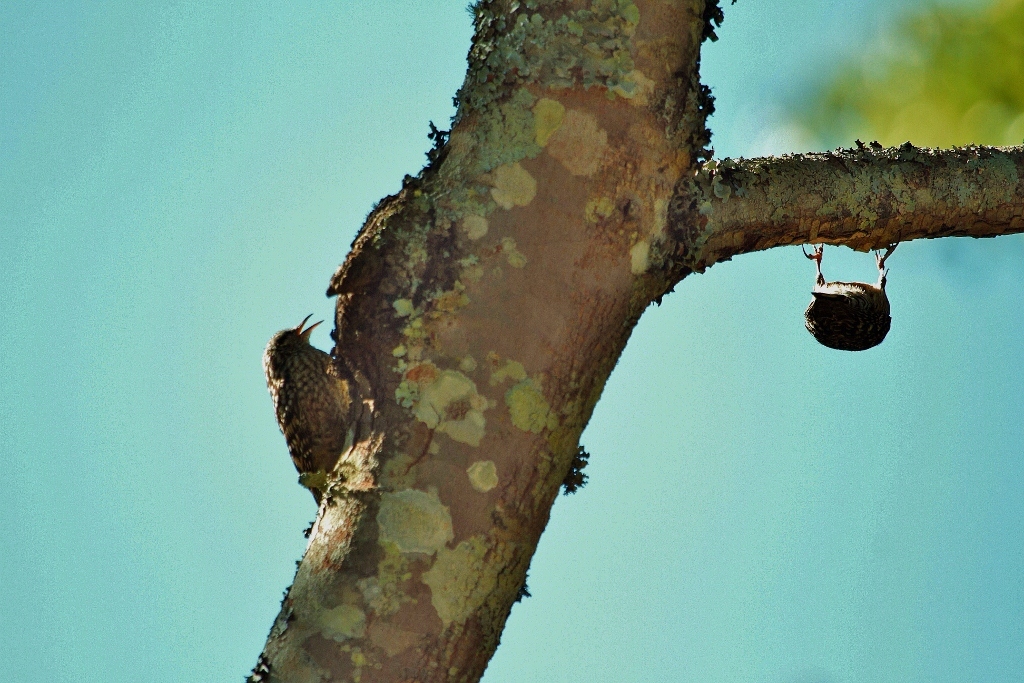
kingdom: Animalia
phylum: Chordata
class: Aves
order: Passeriformes
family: Certhiidae
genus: Salpornis
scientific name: Salpornis salvadori
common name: African spotted creeper
